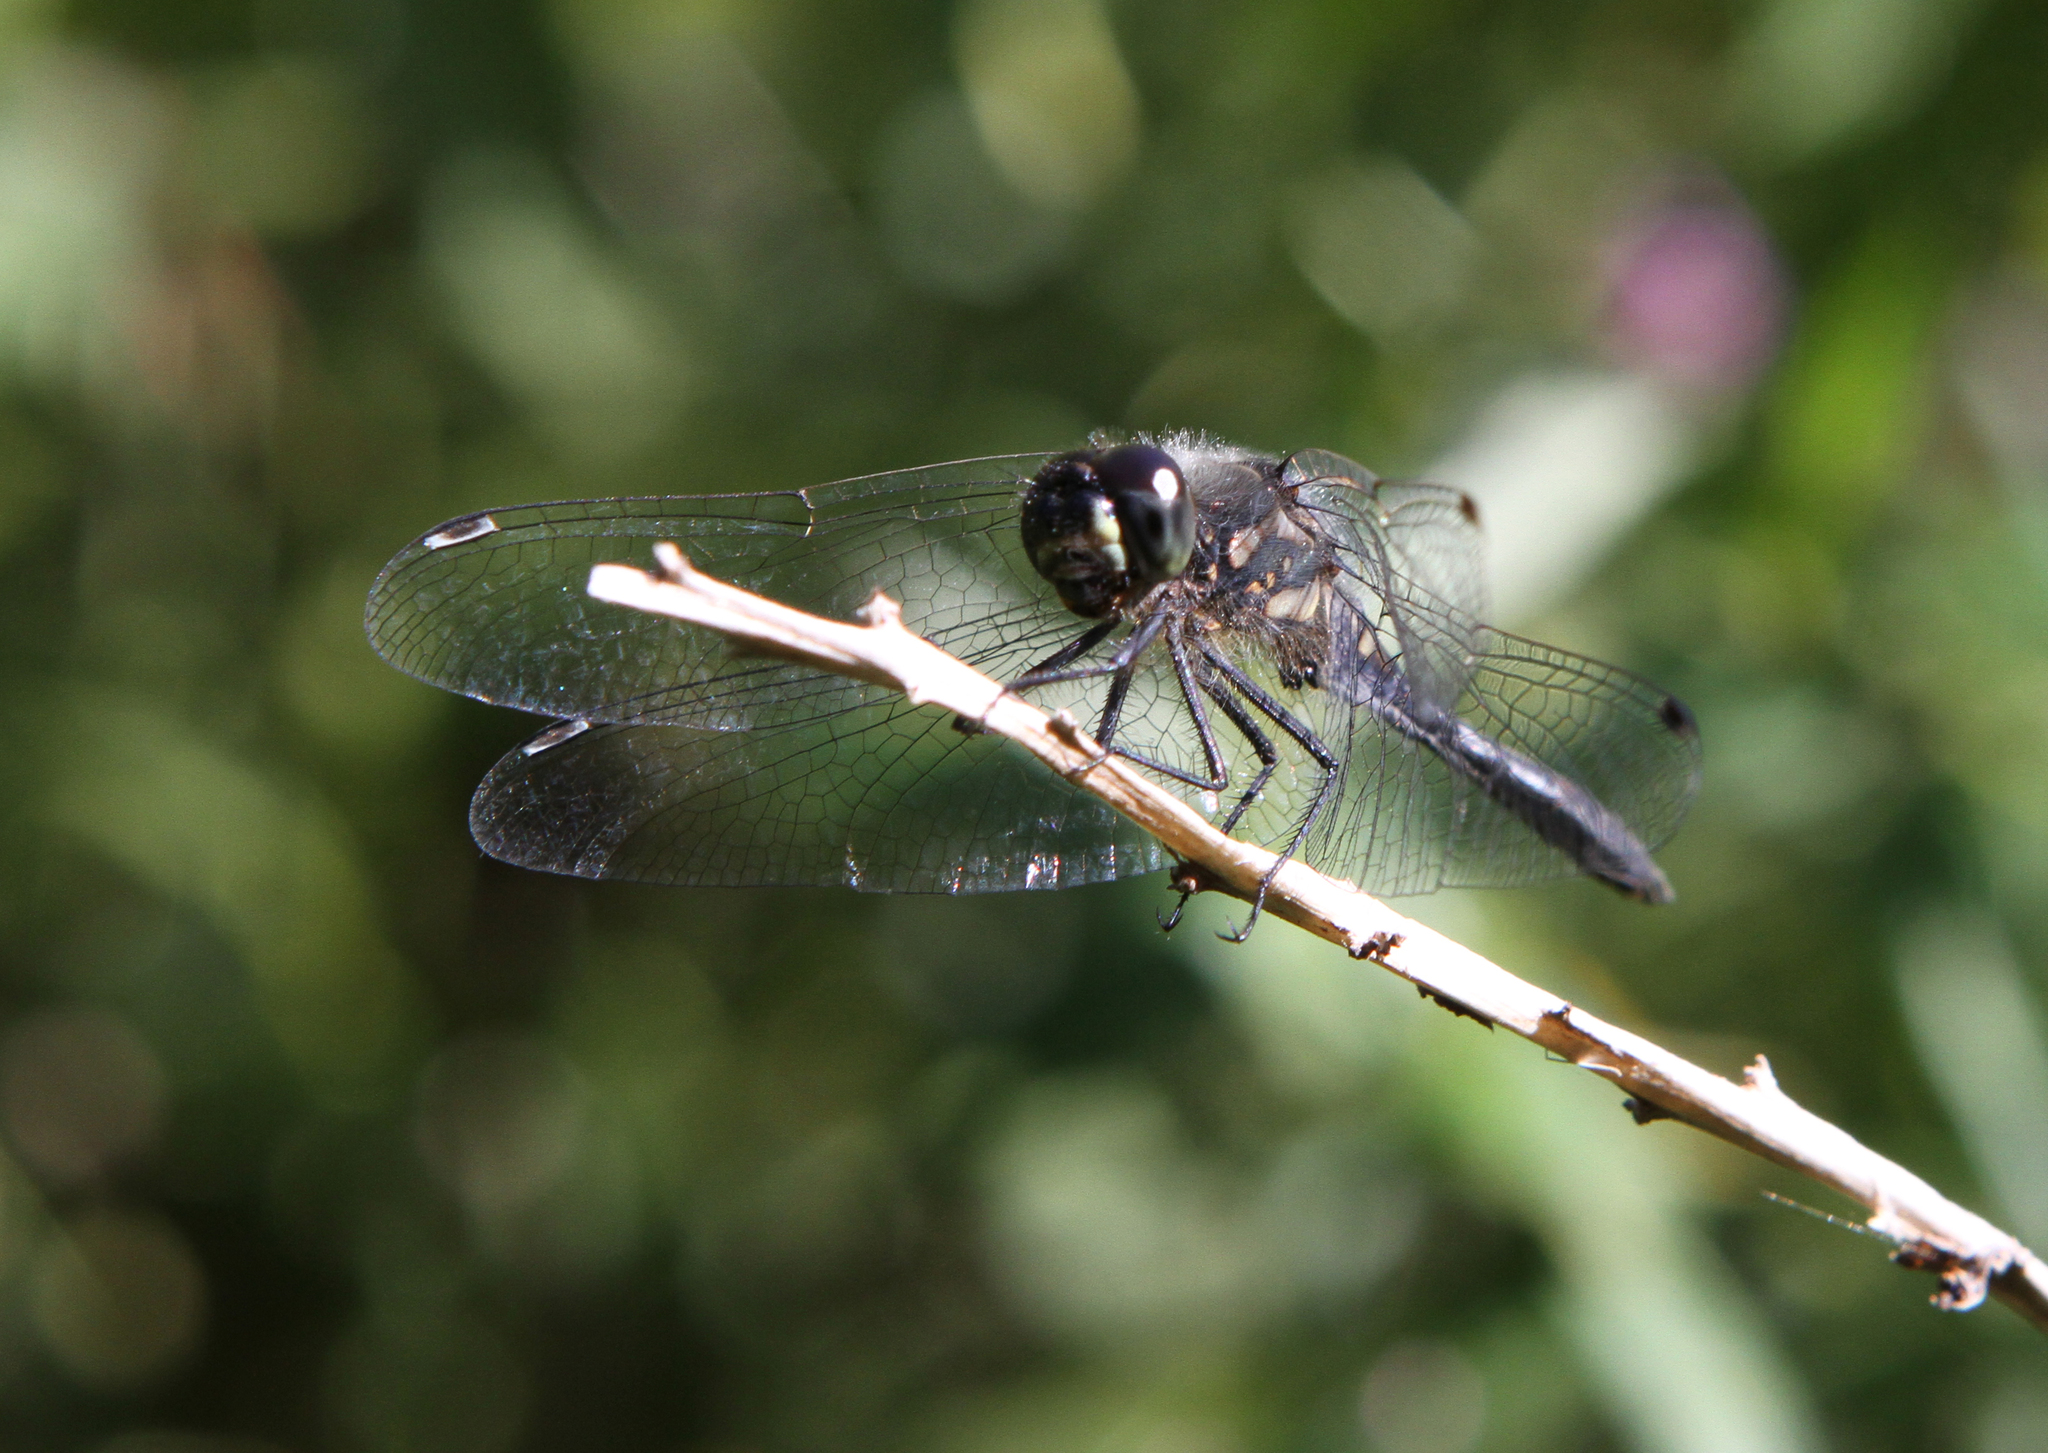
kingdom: Animalia
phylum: Arthropoda
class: Insecta
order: Odonata
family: Libellulidae
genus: Sympetrum
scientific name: Sympetrum danae
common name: Black darter
